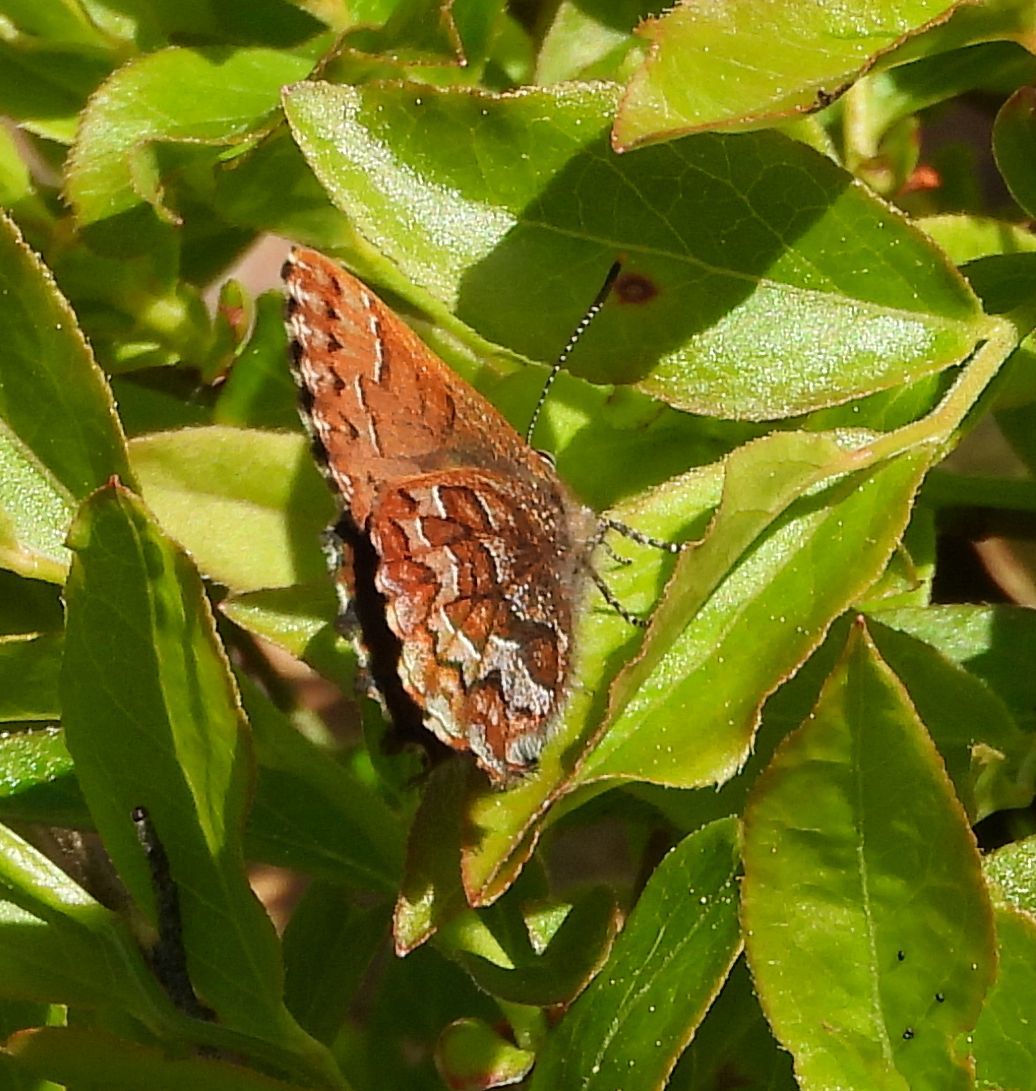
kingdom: Animalia
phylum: Arthropoda
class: Insecta
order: Lepidoptera
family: Lycaenidae
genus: Incisalia
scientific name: Incisalia niphon
